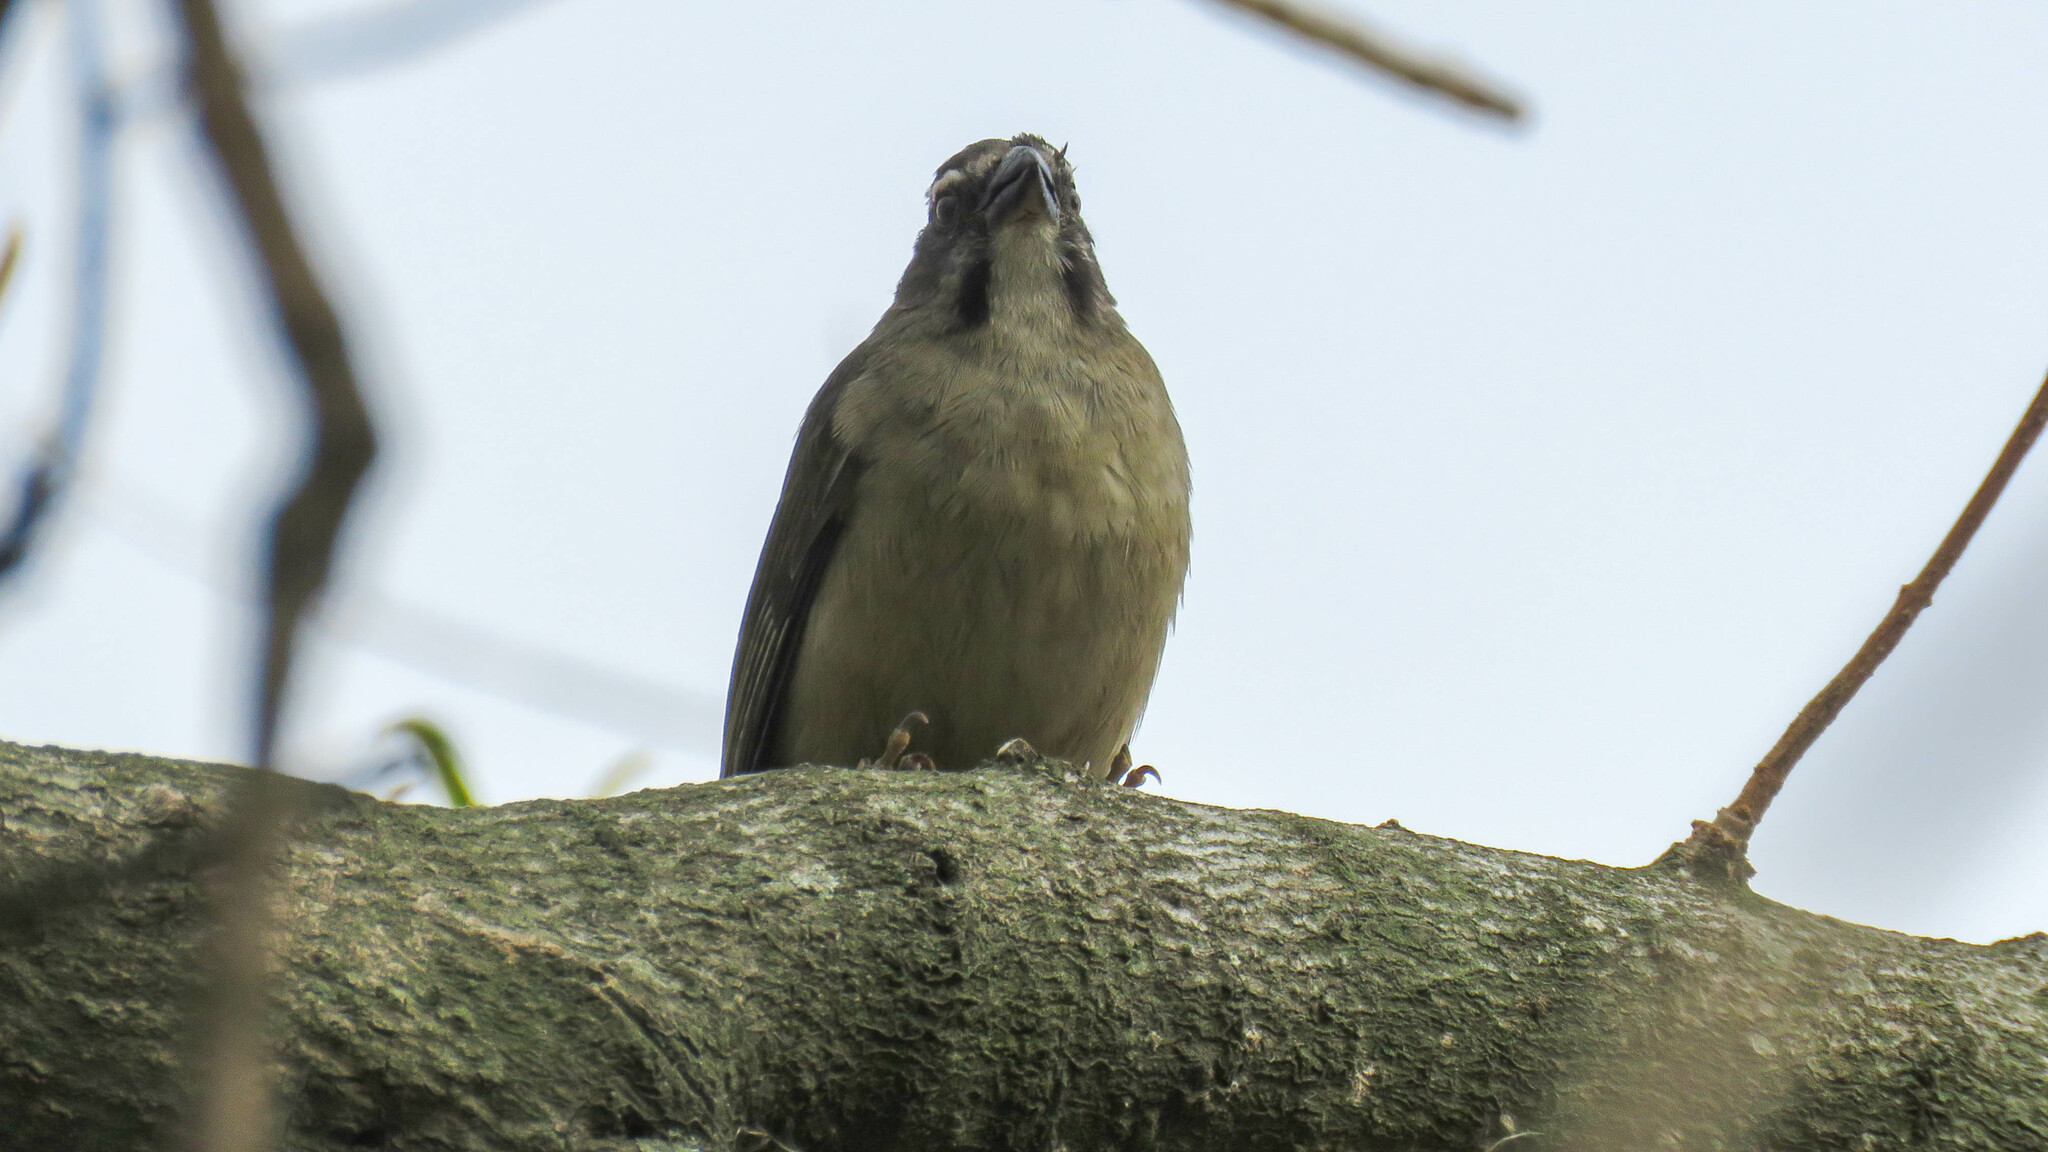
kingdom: Animalia
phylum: Chordata
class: Aves
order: Passeriformes
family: Thraupidae
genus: Saltator
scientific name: Saltator similis
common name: Green-winged saltator
